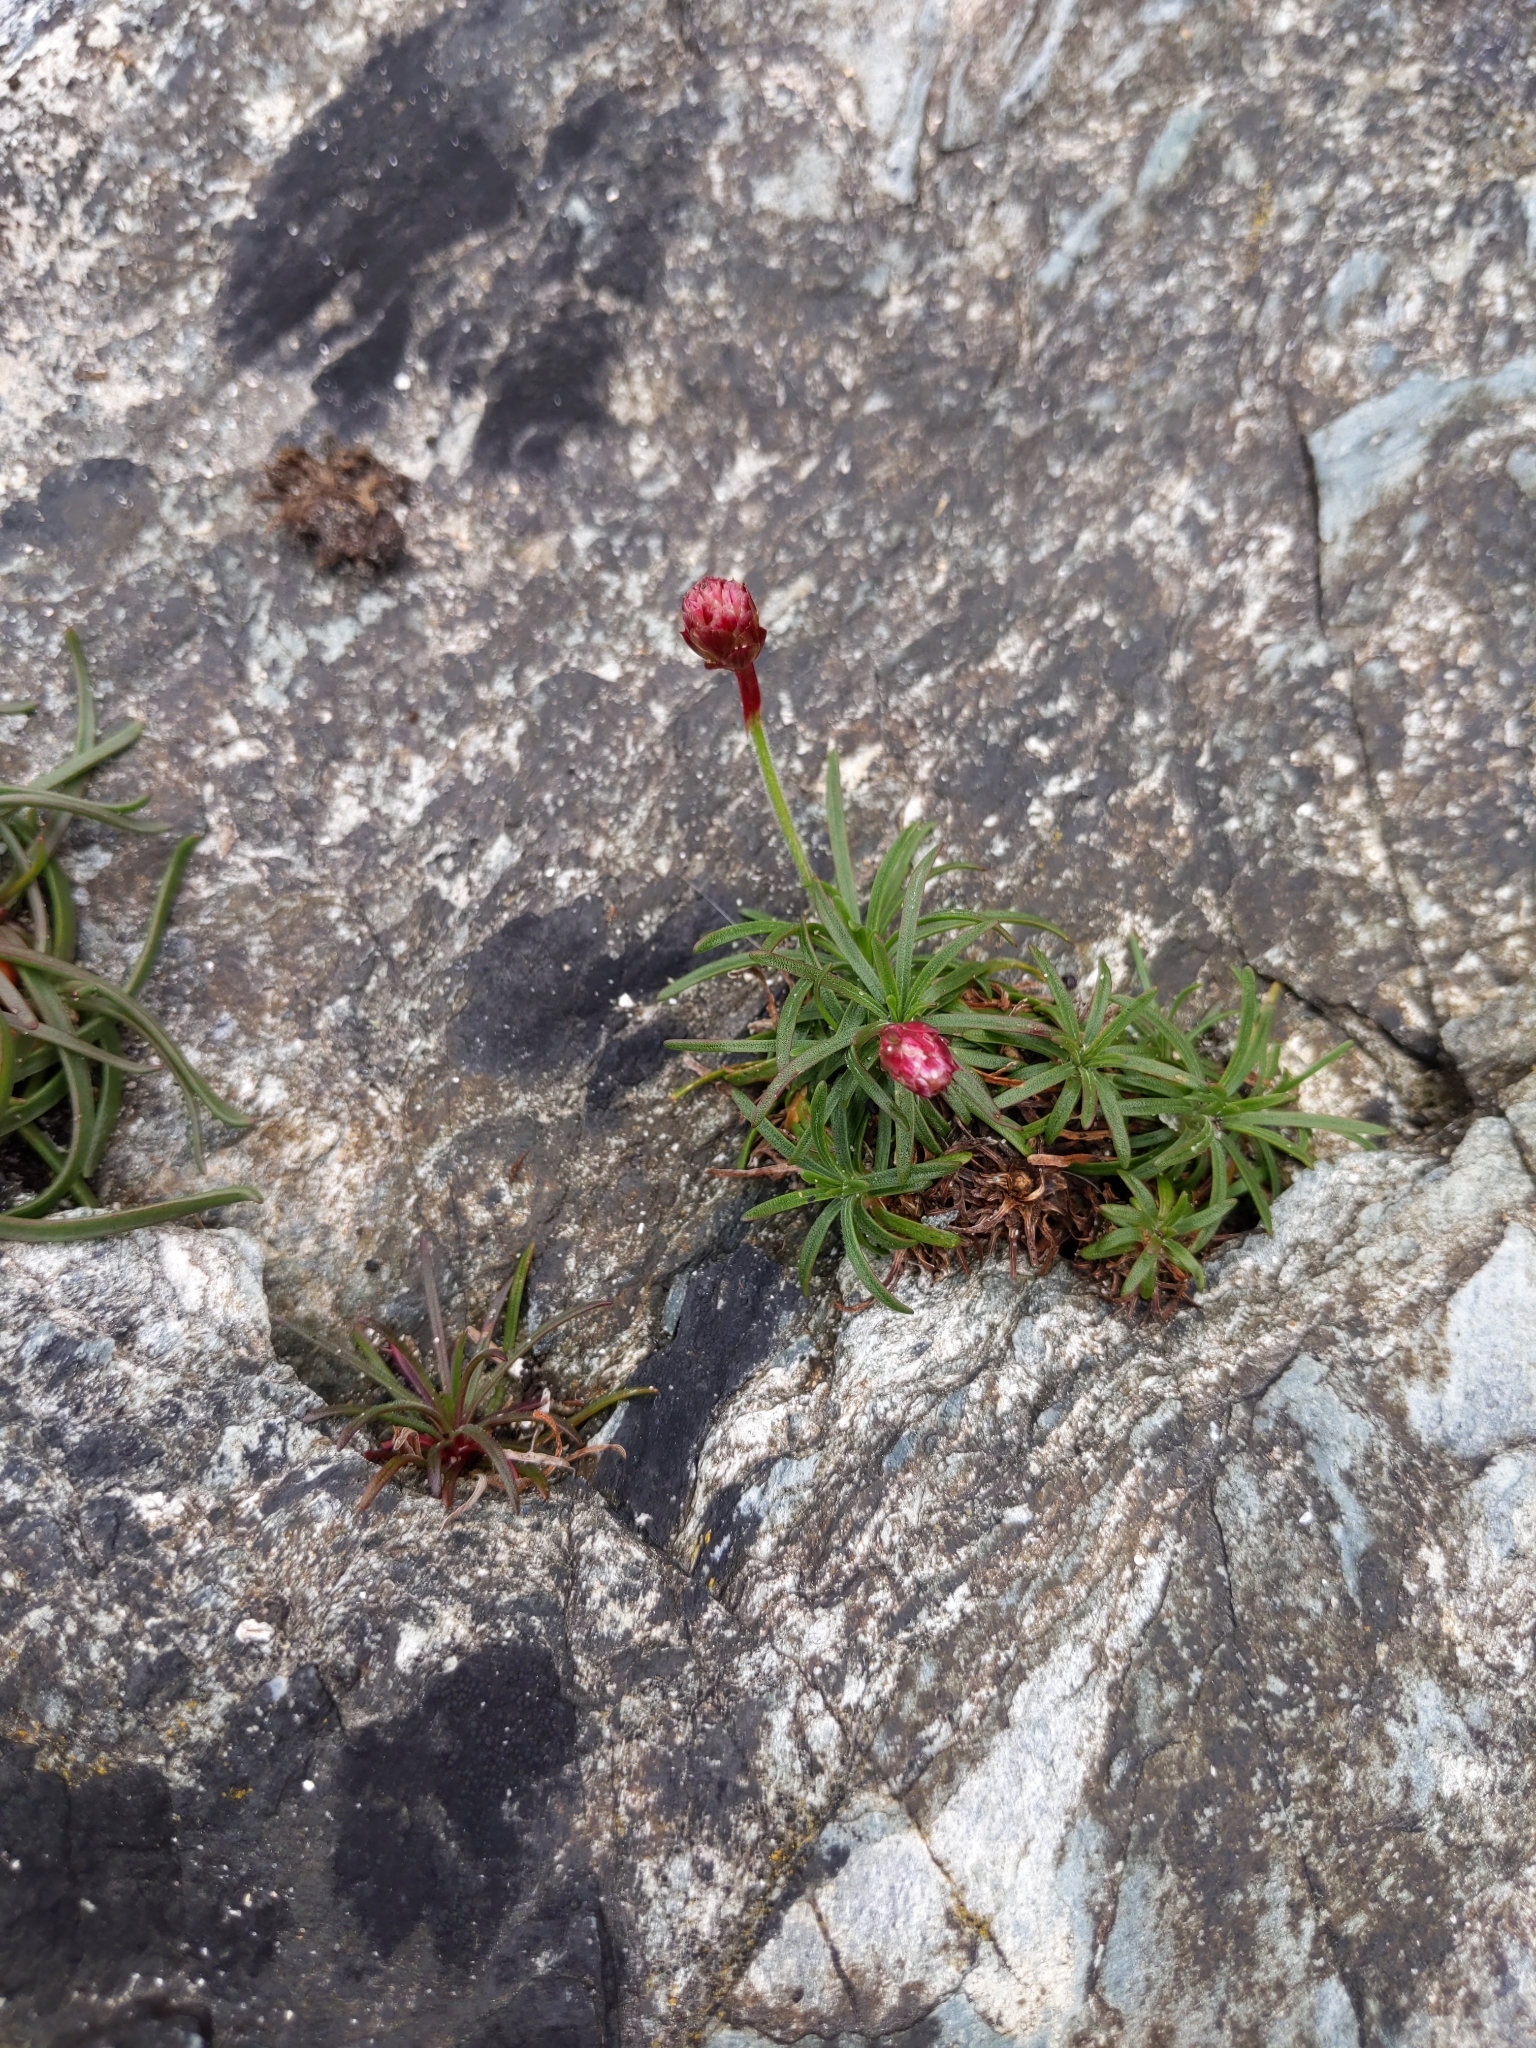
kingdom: Plantae
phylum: Tracheophyta
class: Magnoliopsida
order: Caryophyllales
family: Plumbaginaceae
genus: Armeria
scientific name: Armeria maritima
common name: Thrift
